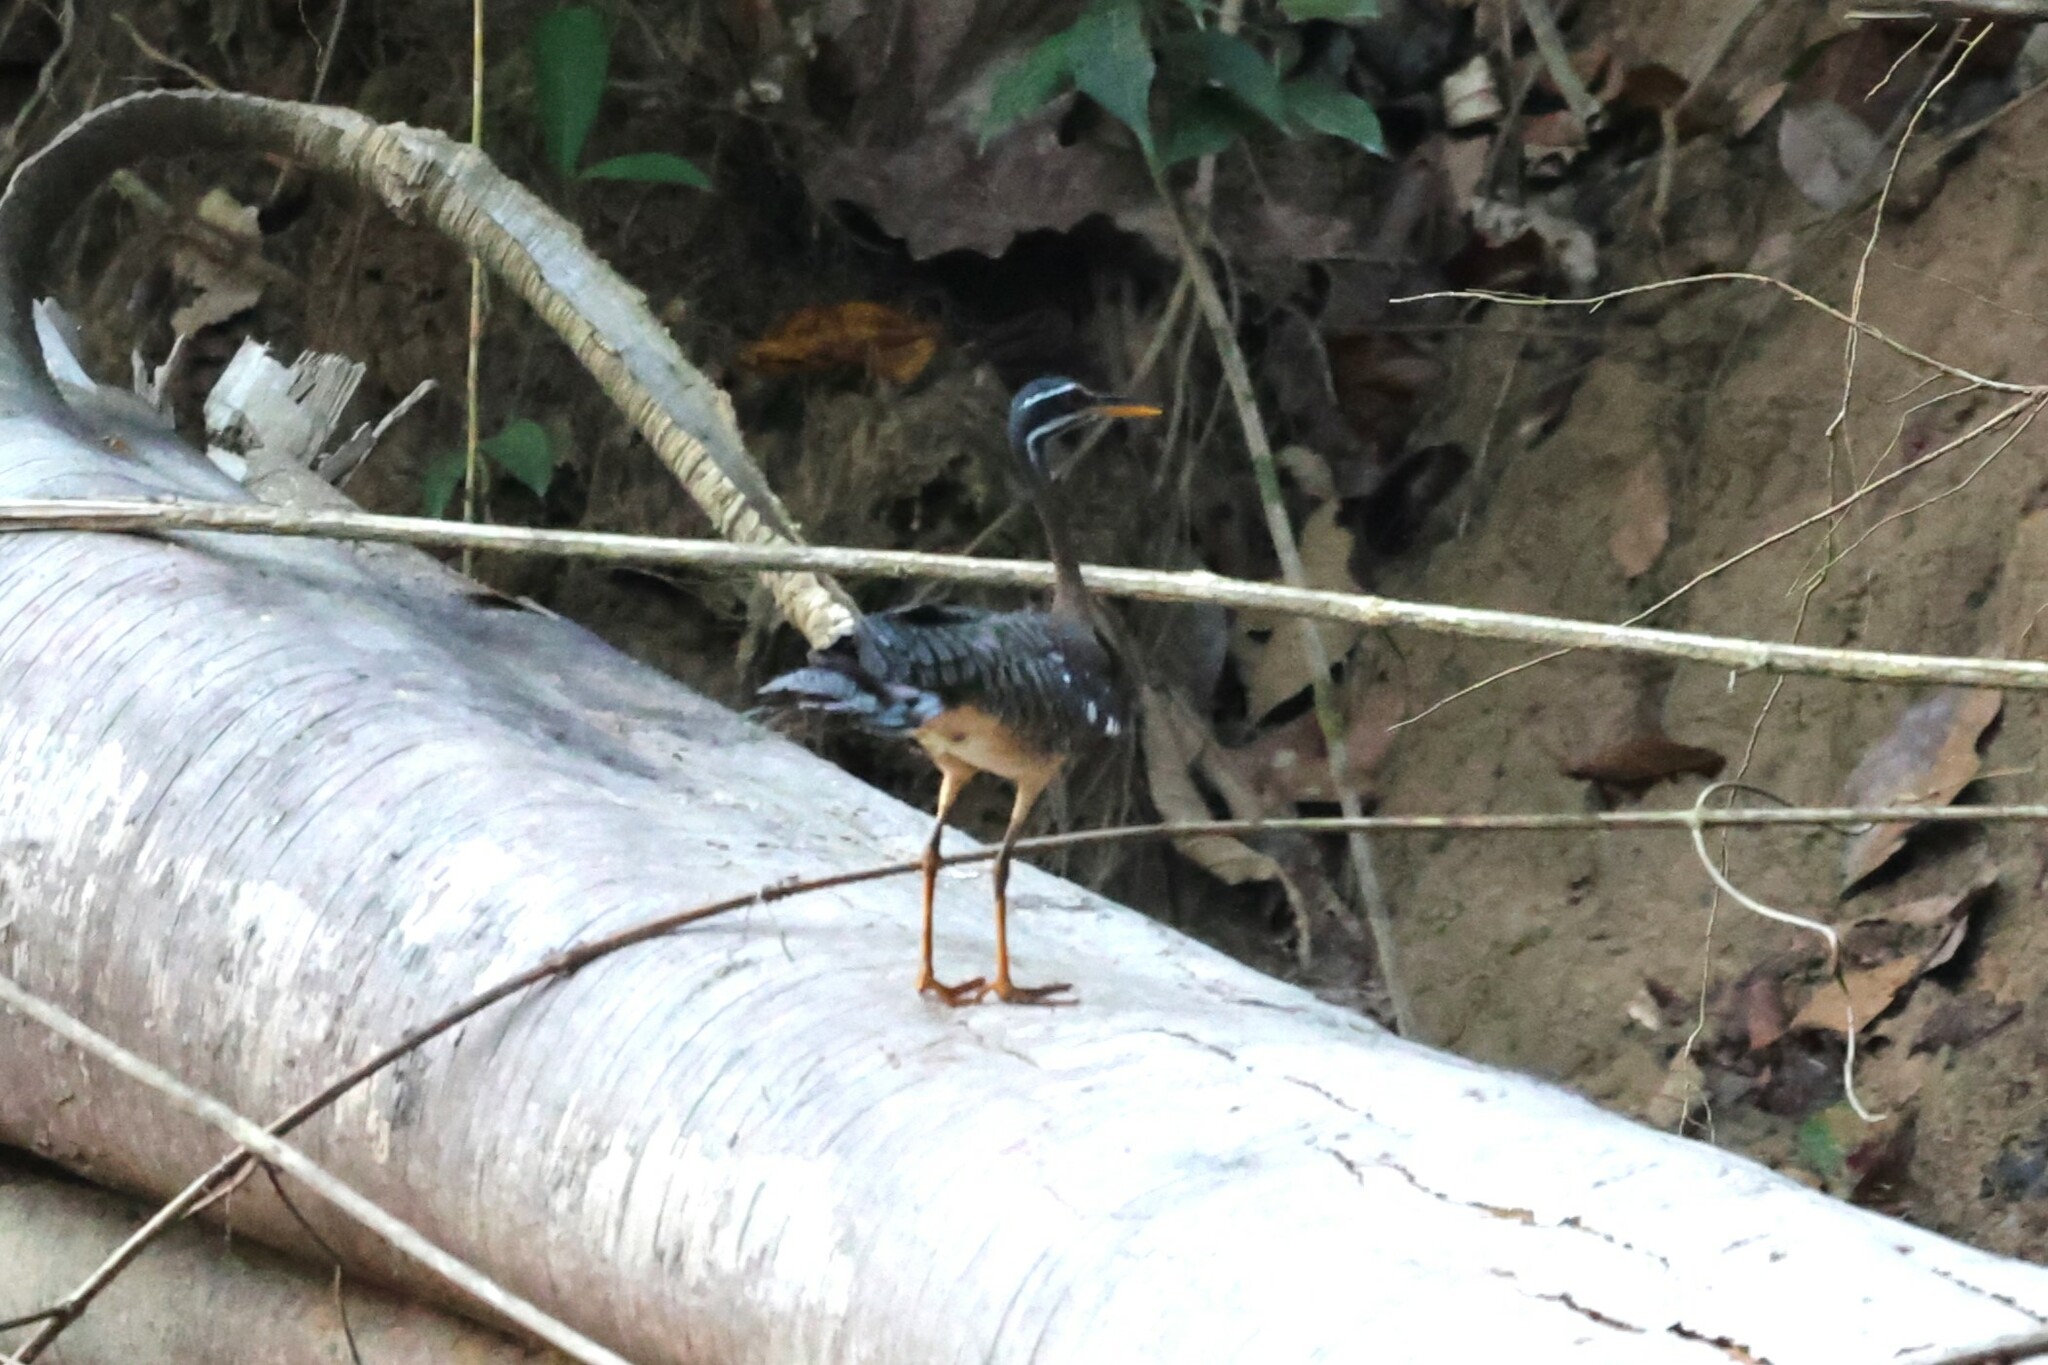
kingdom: Animalia
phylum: Chordata
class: Aves
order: Eurypygiformes
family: Eurypygidae
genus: Eurypyga
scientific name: Eurypyga helias
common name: Sunbittern
